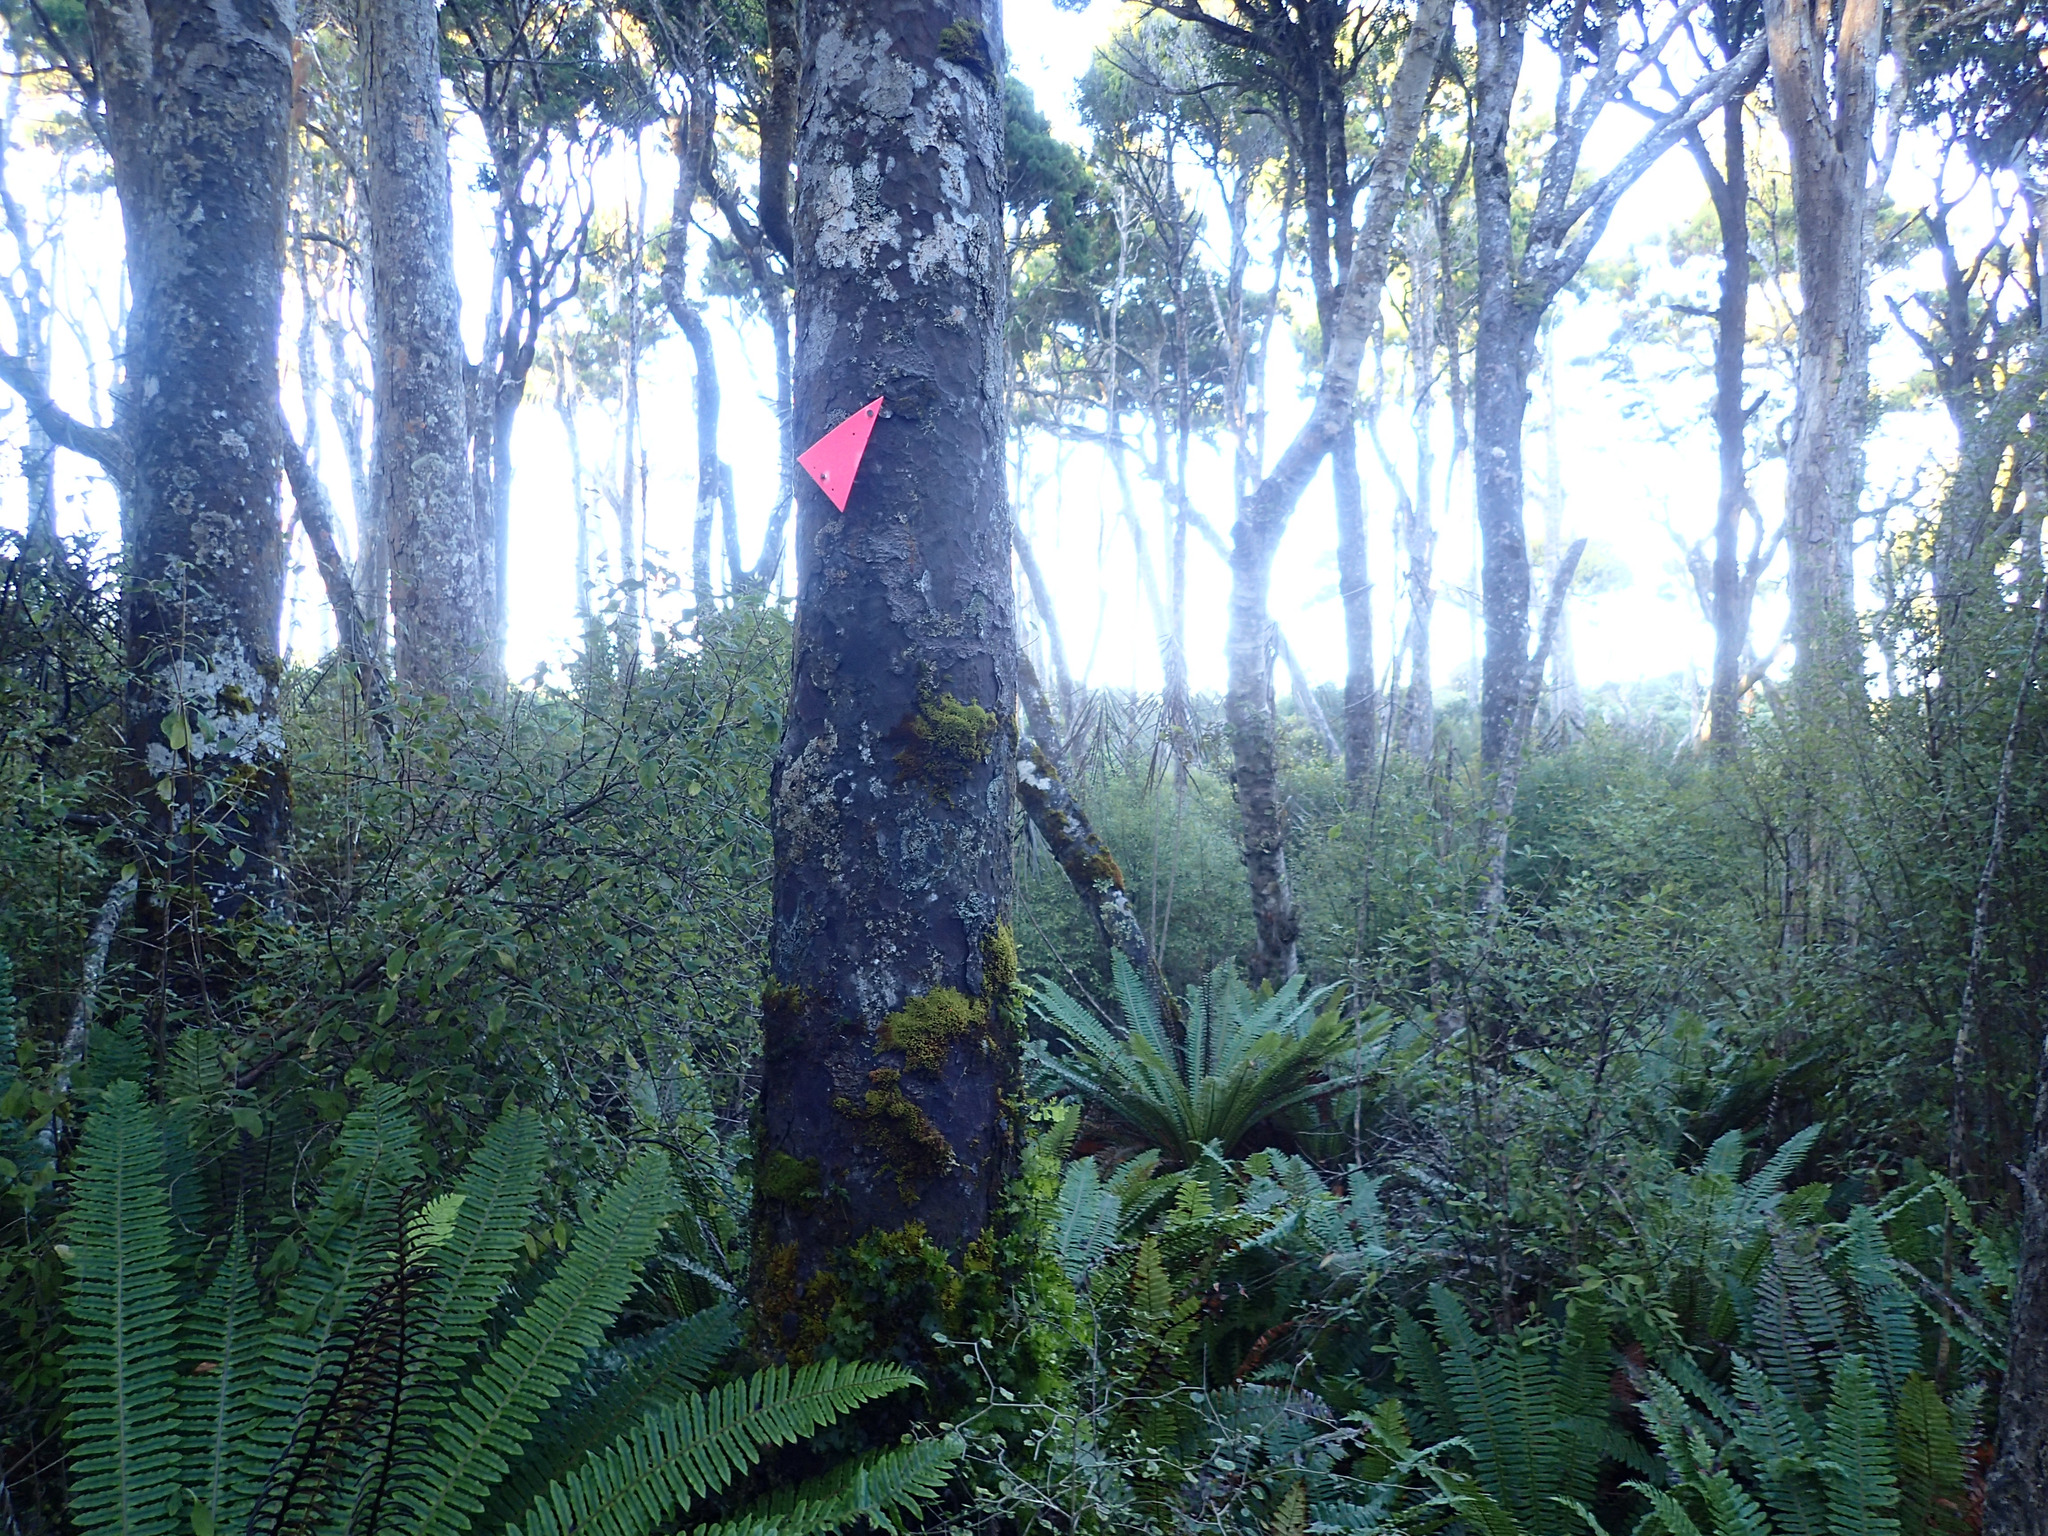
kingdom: Plantae
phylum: Tracheophyta
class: Pinopsida
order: Pinales
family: Podocarpaceae
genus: Prumnopitys
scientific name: Prumnopitys taxifolia
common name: Matai
